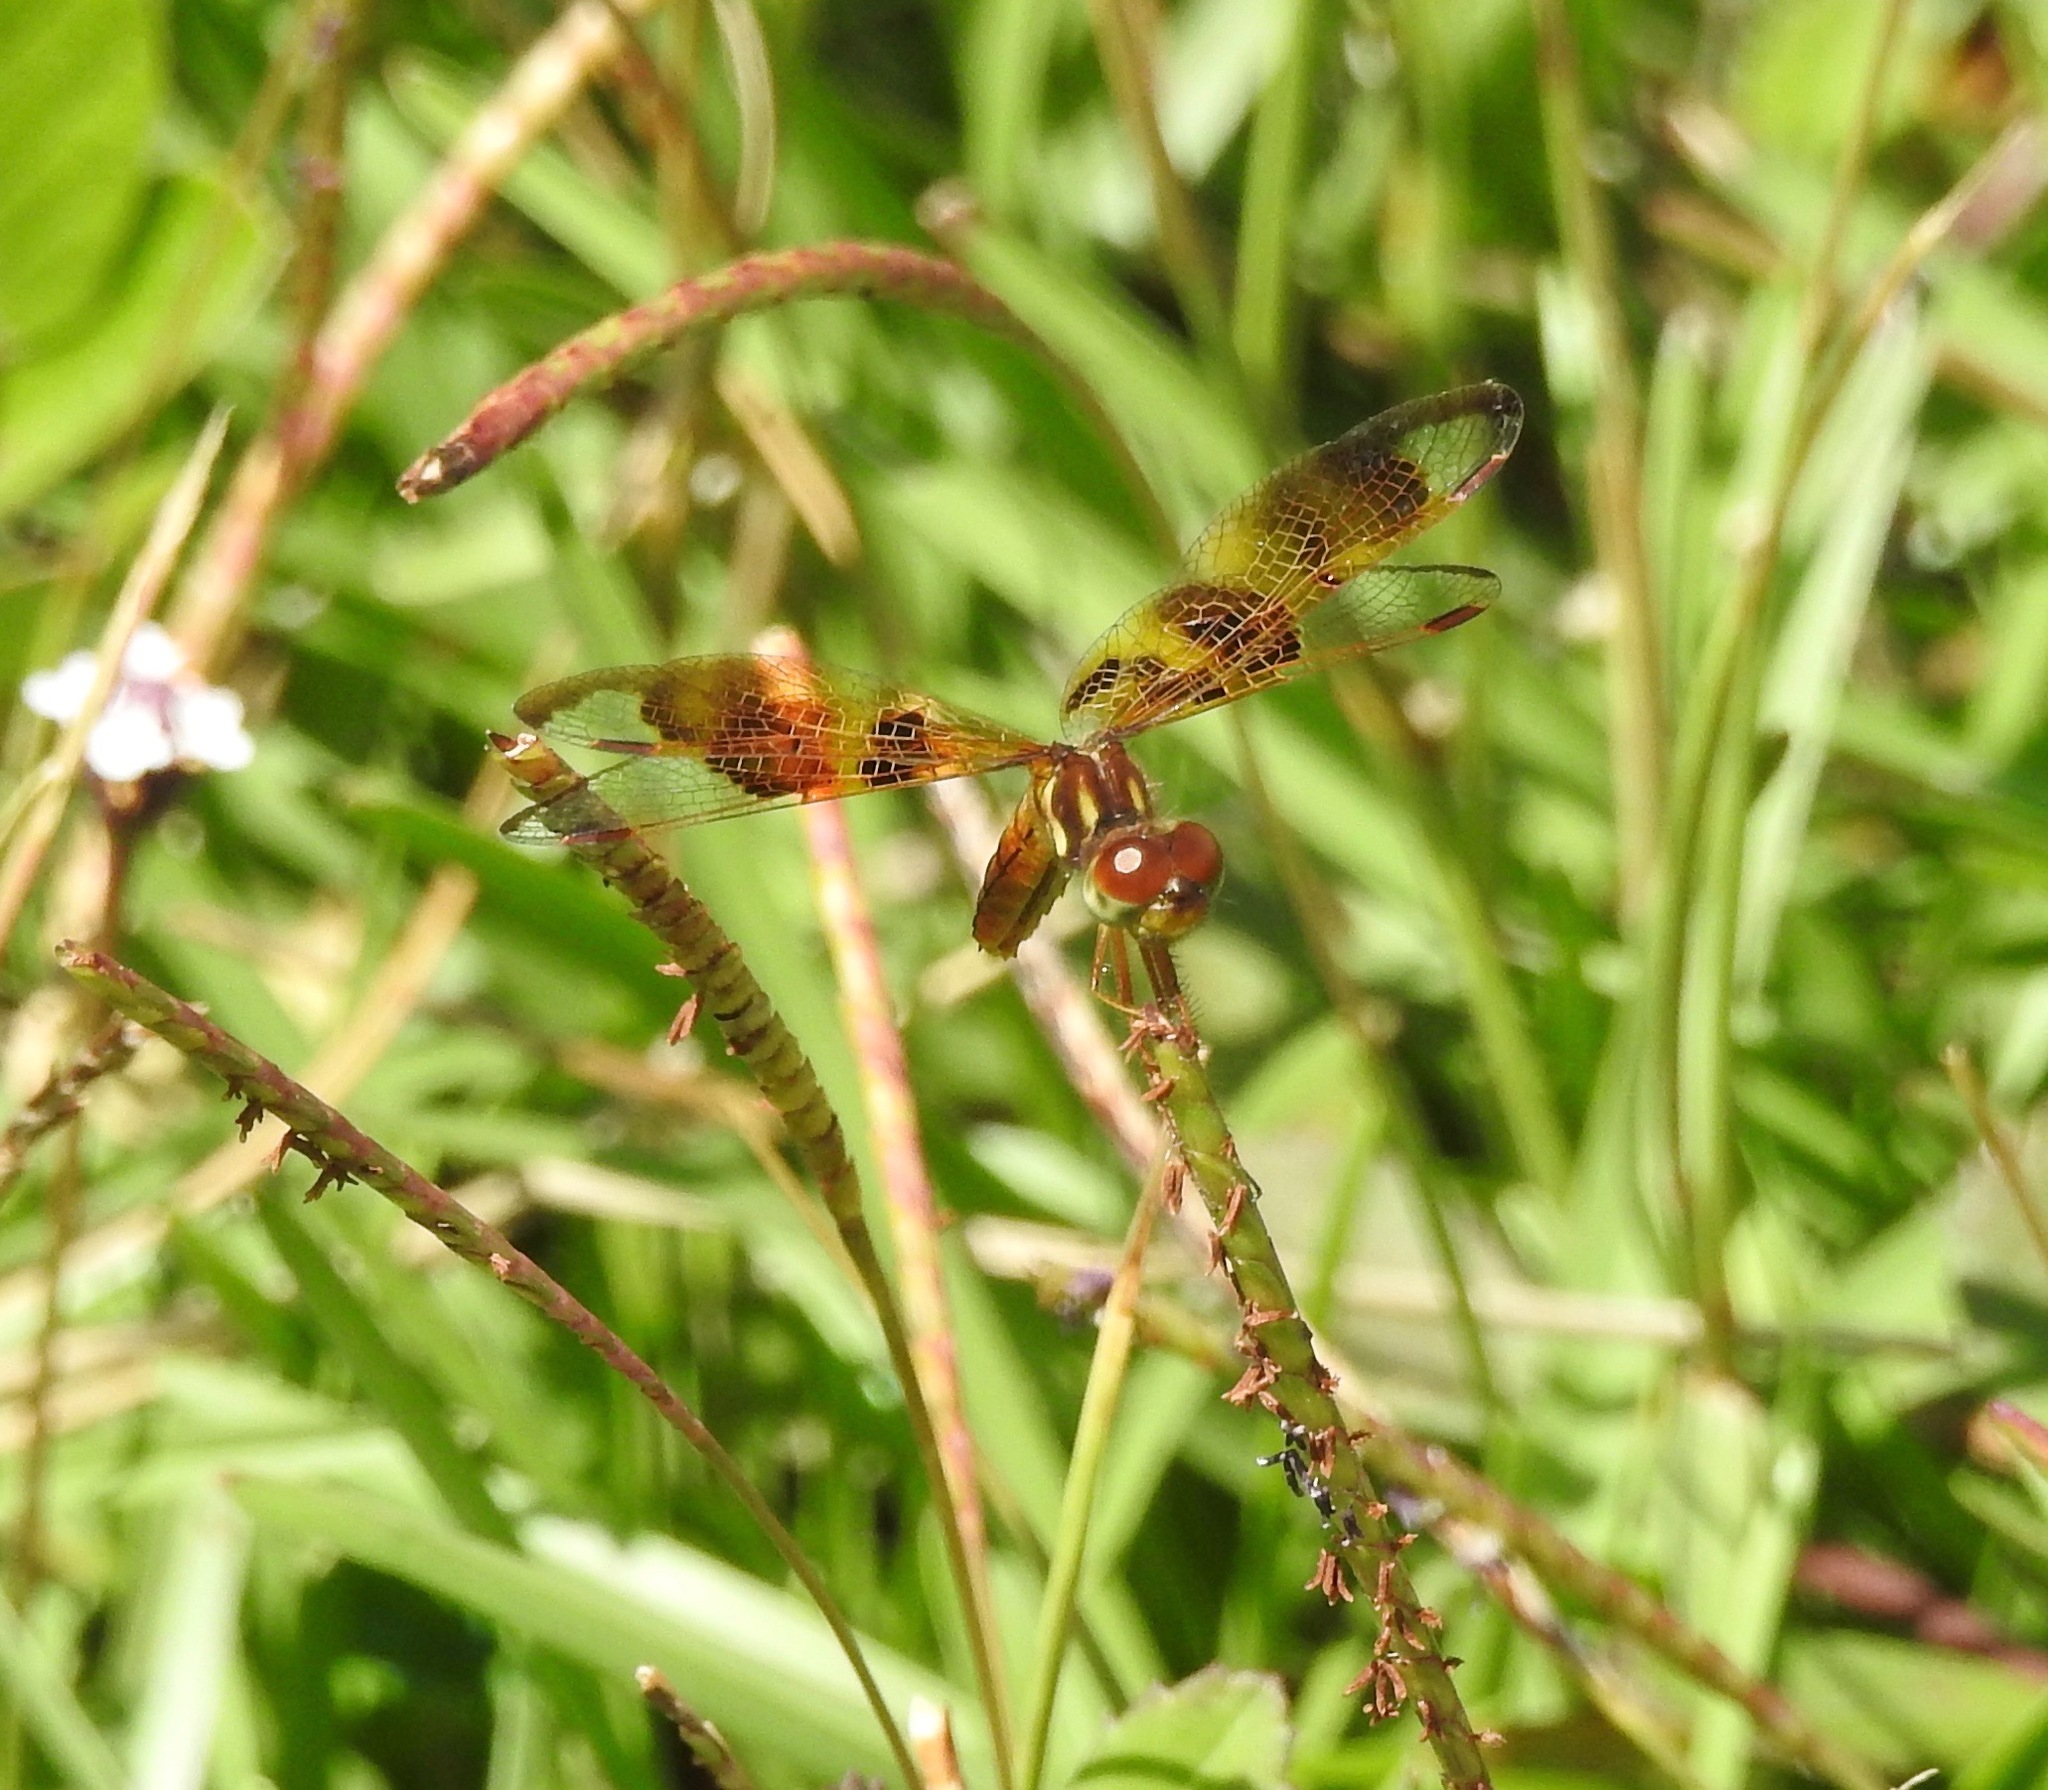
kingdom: Animalia
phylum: Arthropoda
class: Insecta
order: Odonata
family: Libellulidae
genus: Perithemis
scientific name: Perithemis tenera
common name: Eastern amberwing
